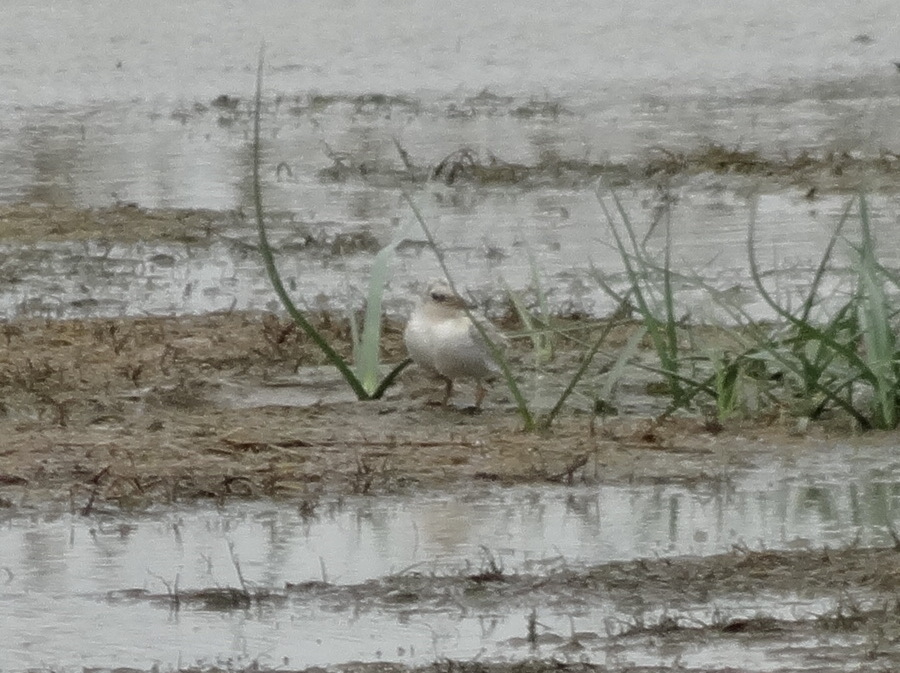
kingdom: Animalia
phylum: Chordata
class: Aves
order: Charadriiformes
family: Laridae
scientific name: Laridae
